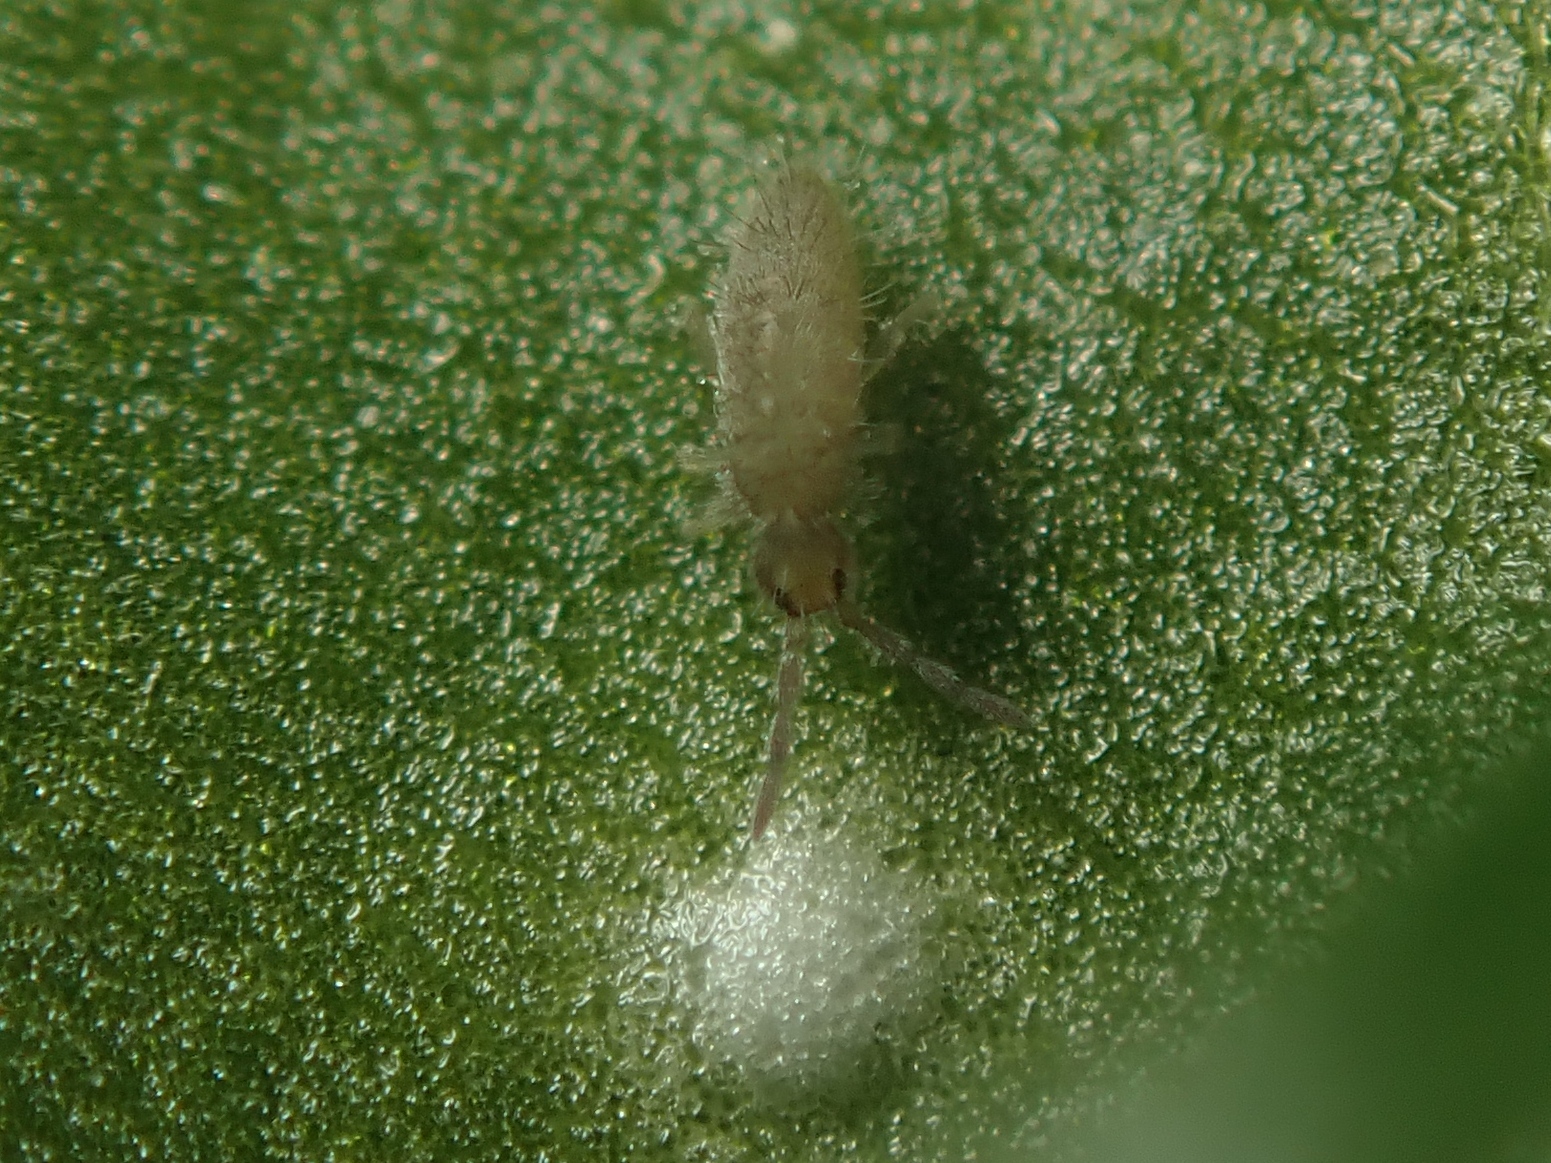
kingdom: Animalia
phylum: Arthropoda
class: Collembola
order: Entomobryomorpha
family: Entomobryidae
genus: Entomobrya
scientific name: Entomobrya schoetti
